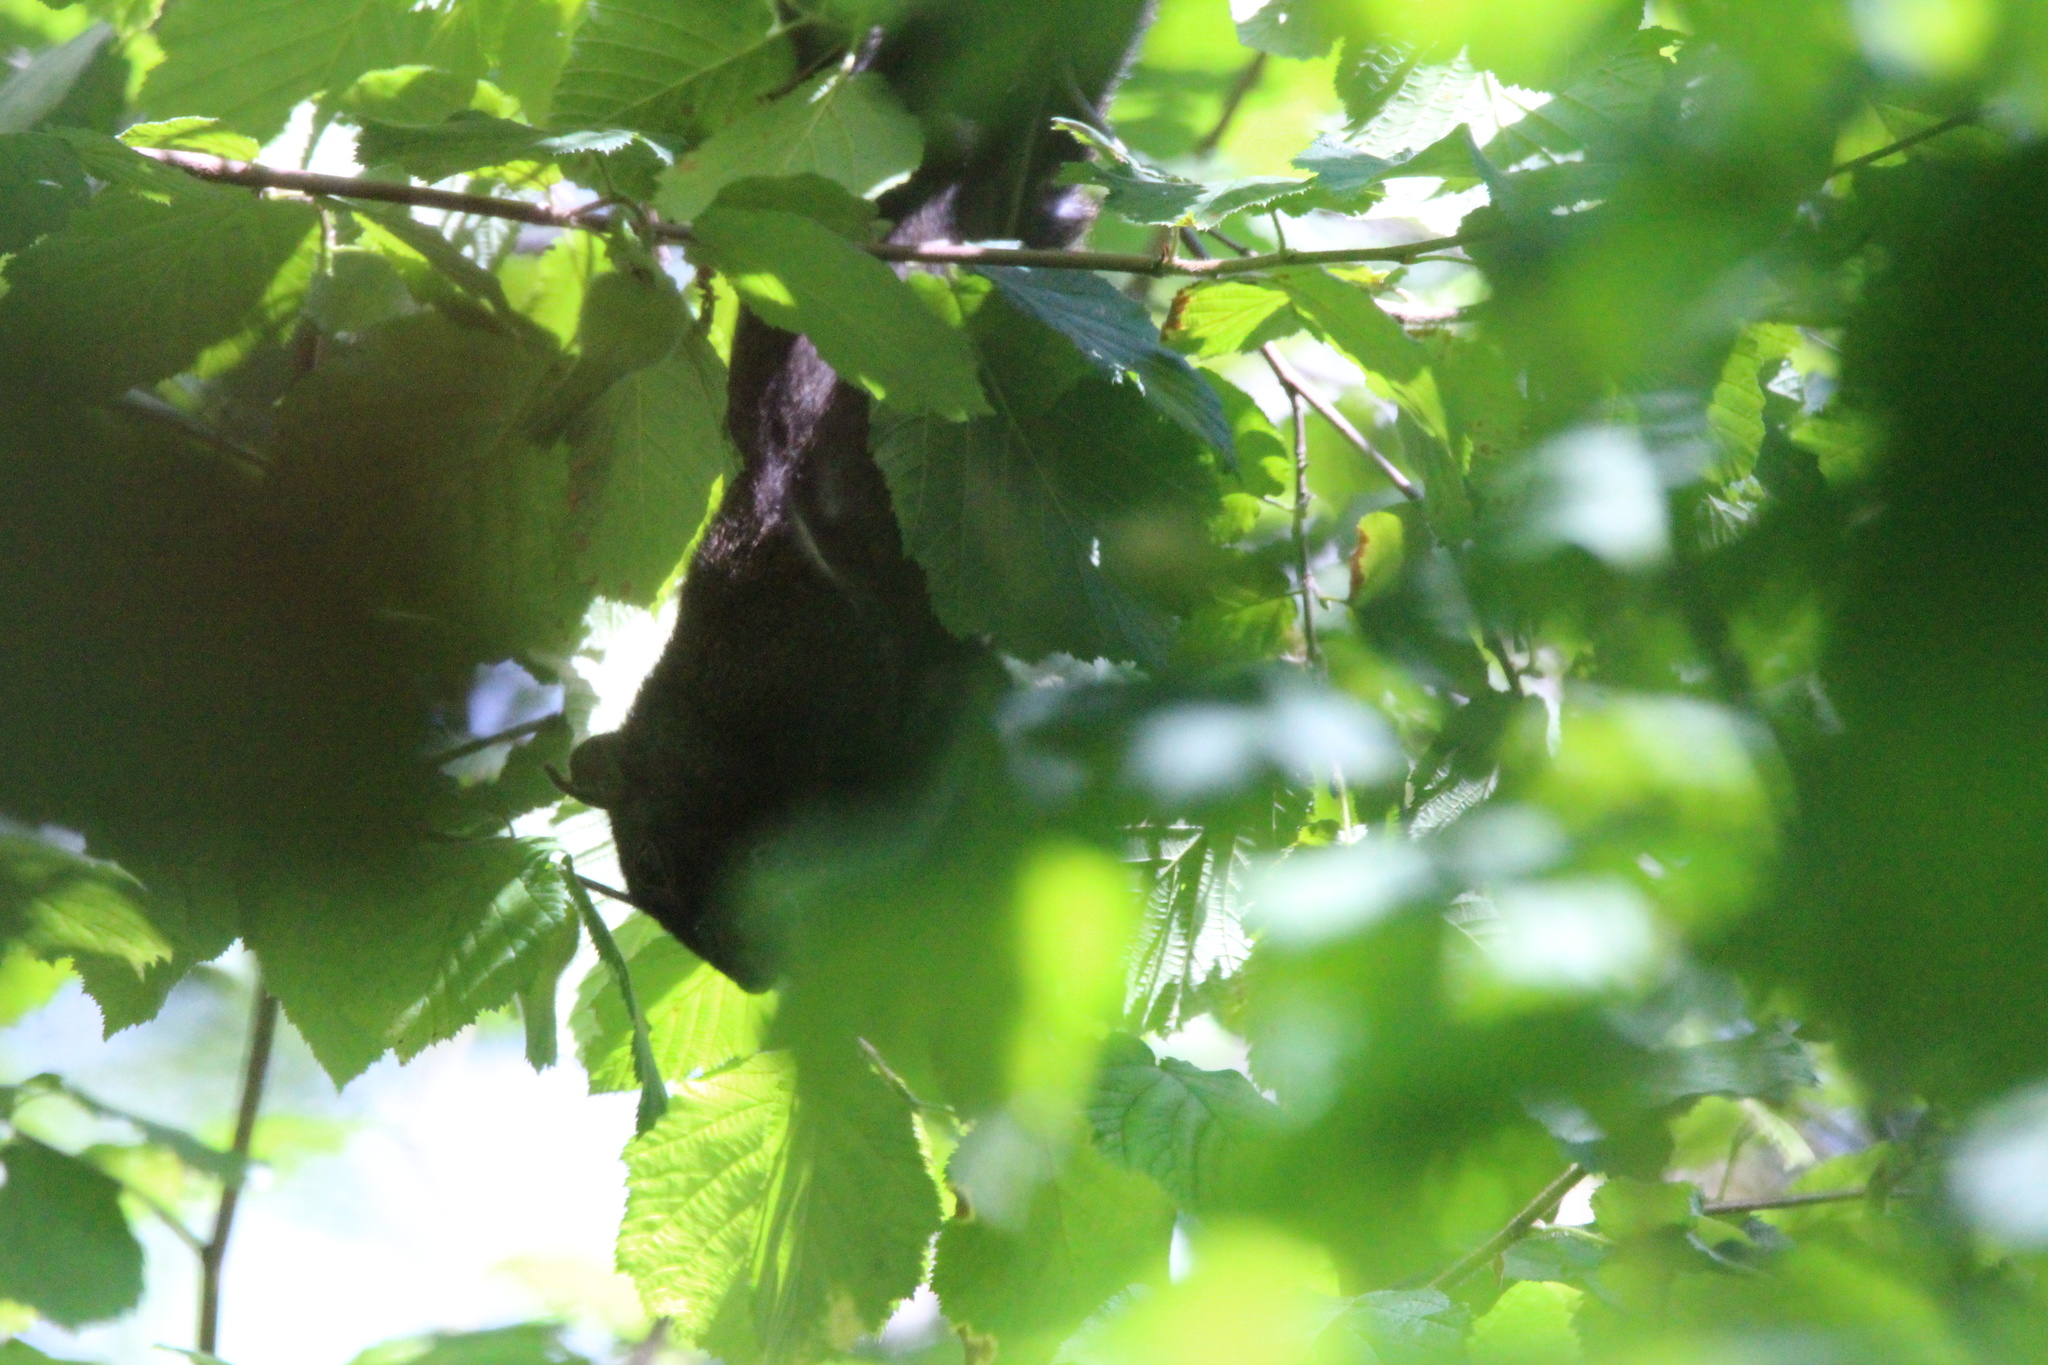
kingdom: Animalia
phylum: Chordata
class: Mammalia
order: Rodentia
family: Sciuridae
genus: Sciurus
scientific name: Sciurus carolinensis
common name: Eastern gray squirrel
